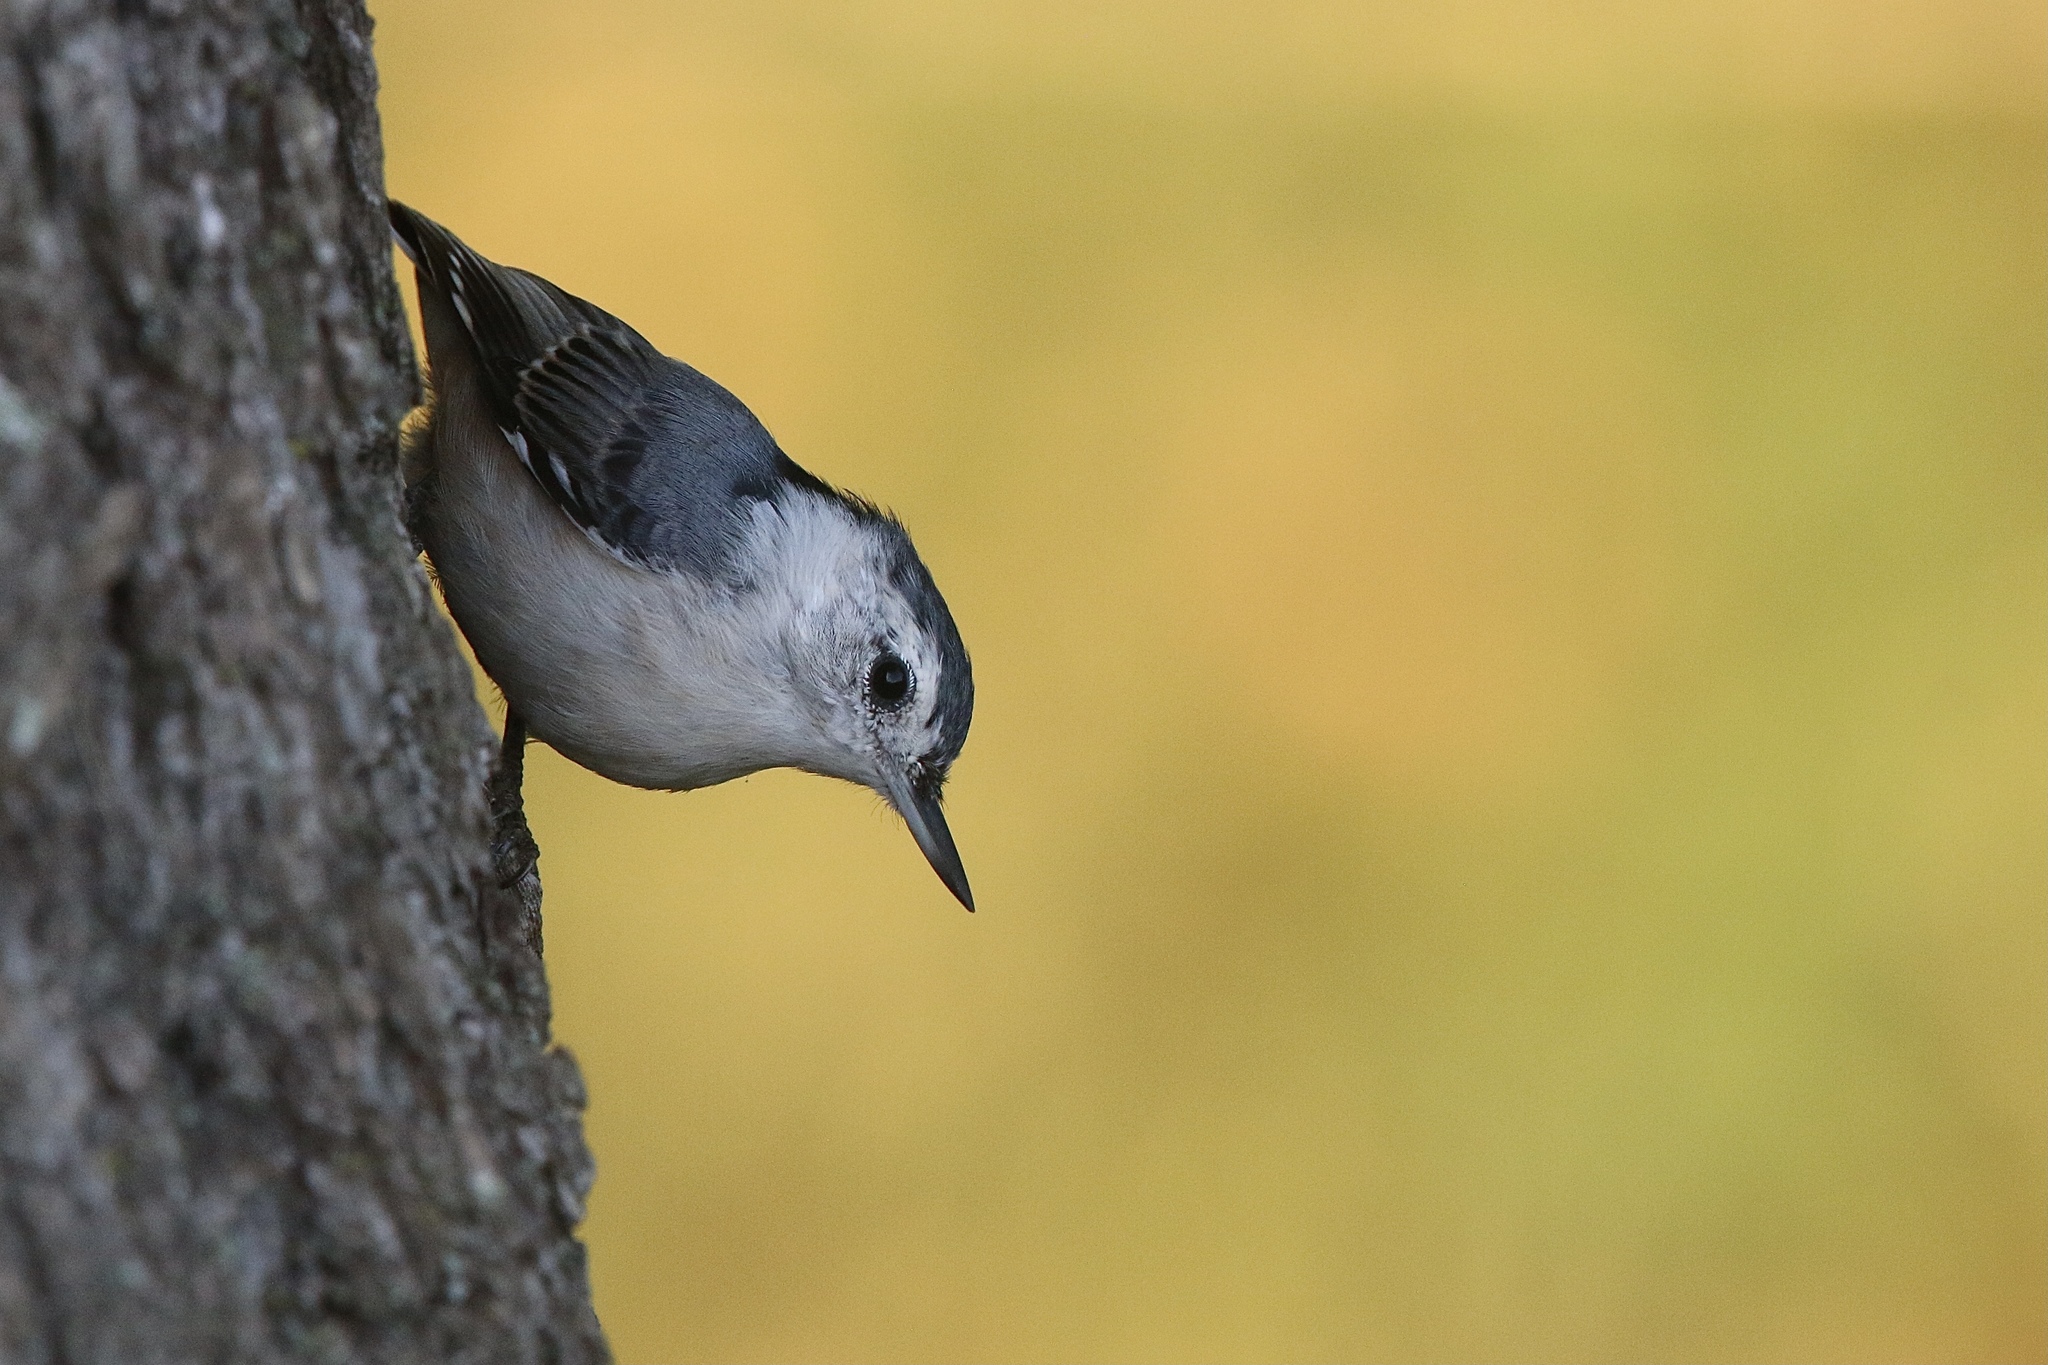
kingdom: Animalia
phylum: Chordata
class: Aves
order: Passeriformes
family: Sittidae
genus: Sitta
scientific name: Sitta carolinensis
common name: White-breasted nuthatch
